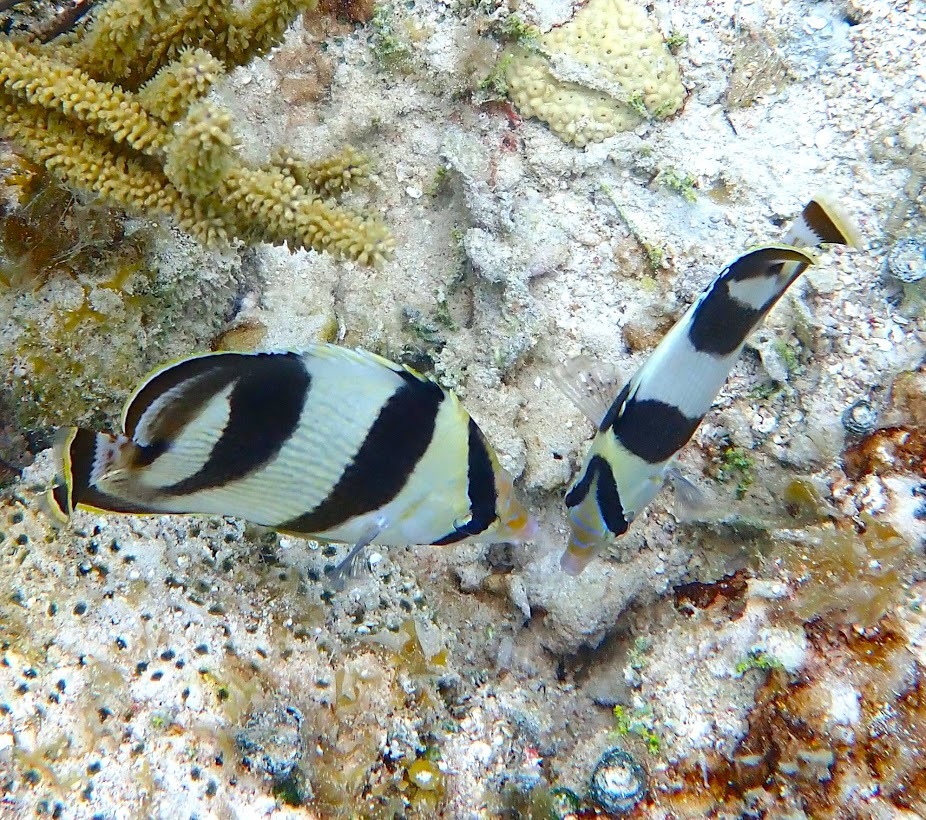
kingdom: Animalia
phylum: Chordata
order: Perciformes
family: Chaetodontidae
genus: Chaetodon
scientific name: Chaetodon striatus
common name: Banded butterflyfish
